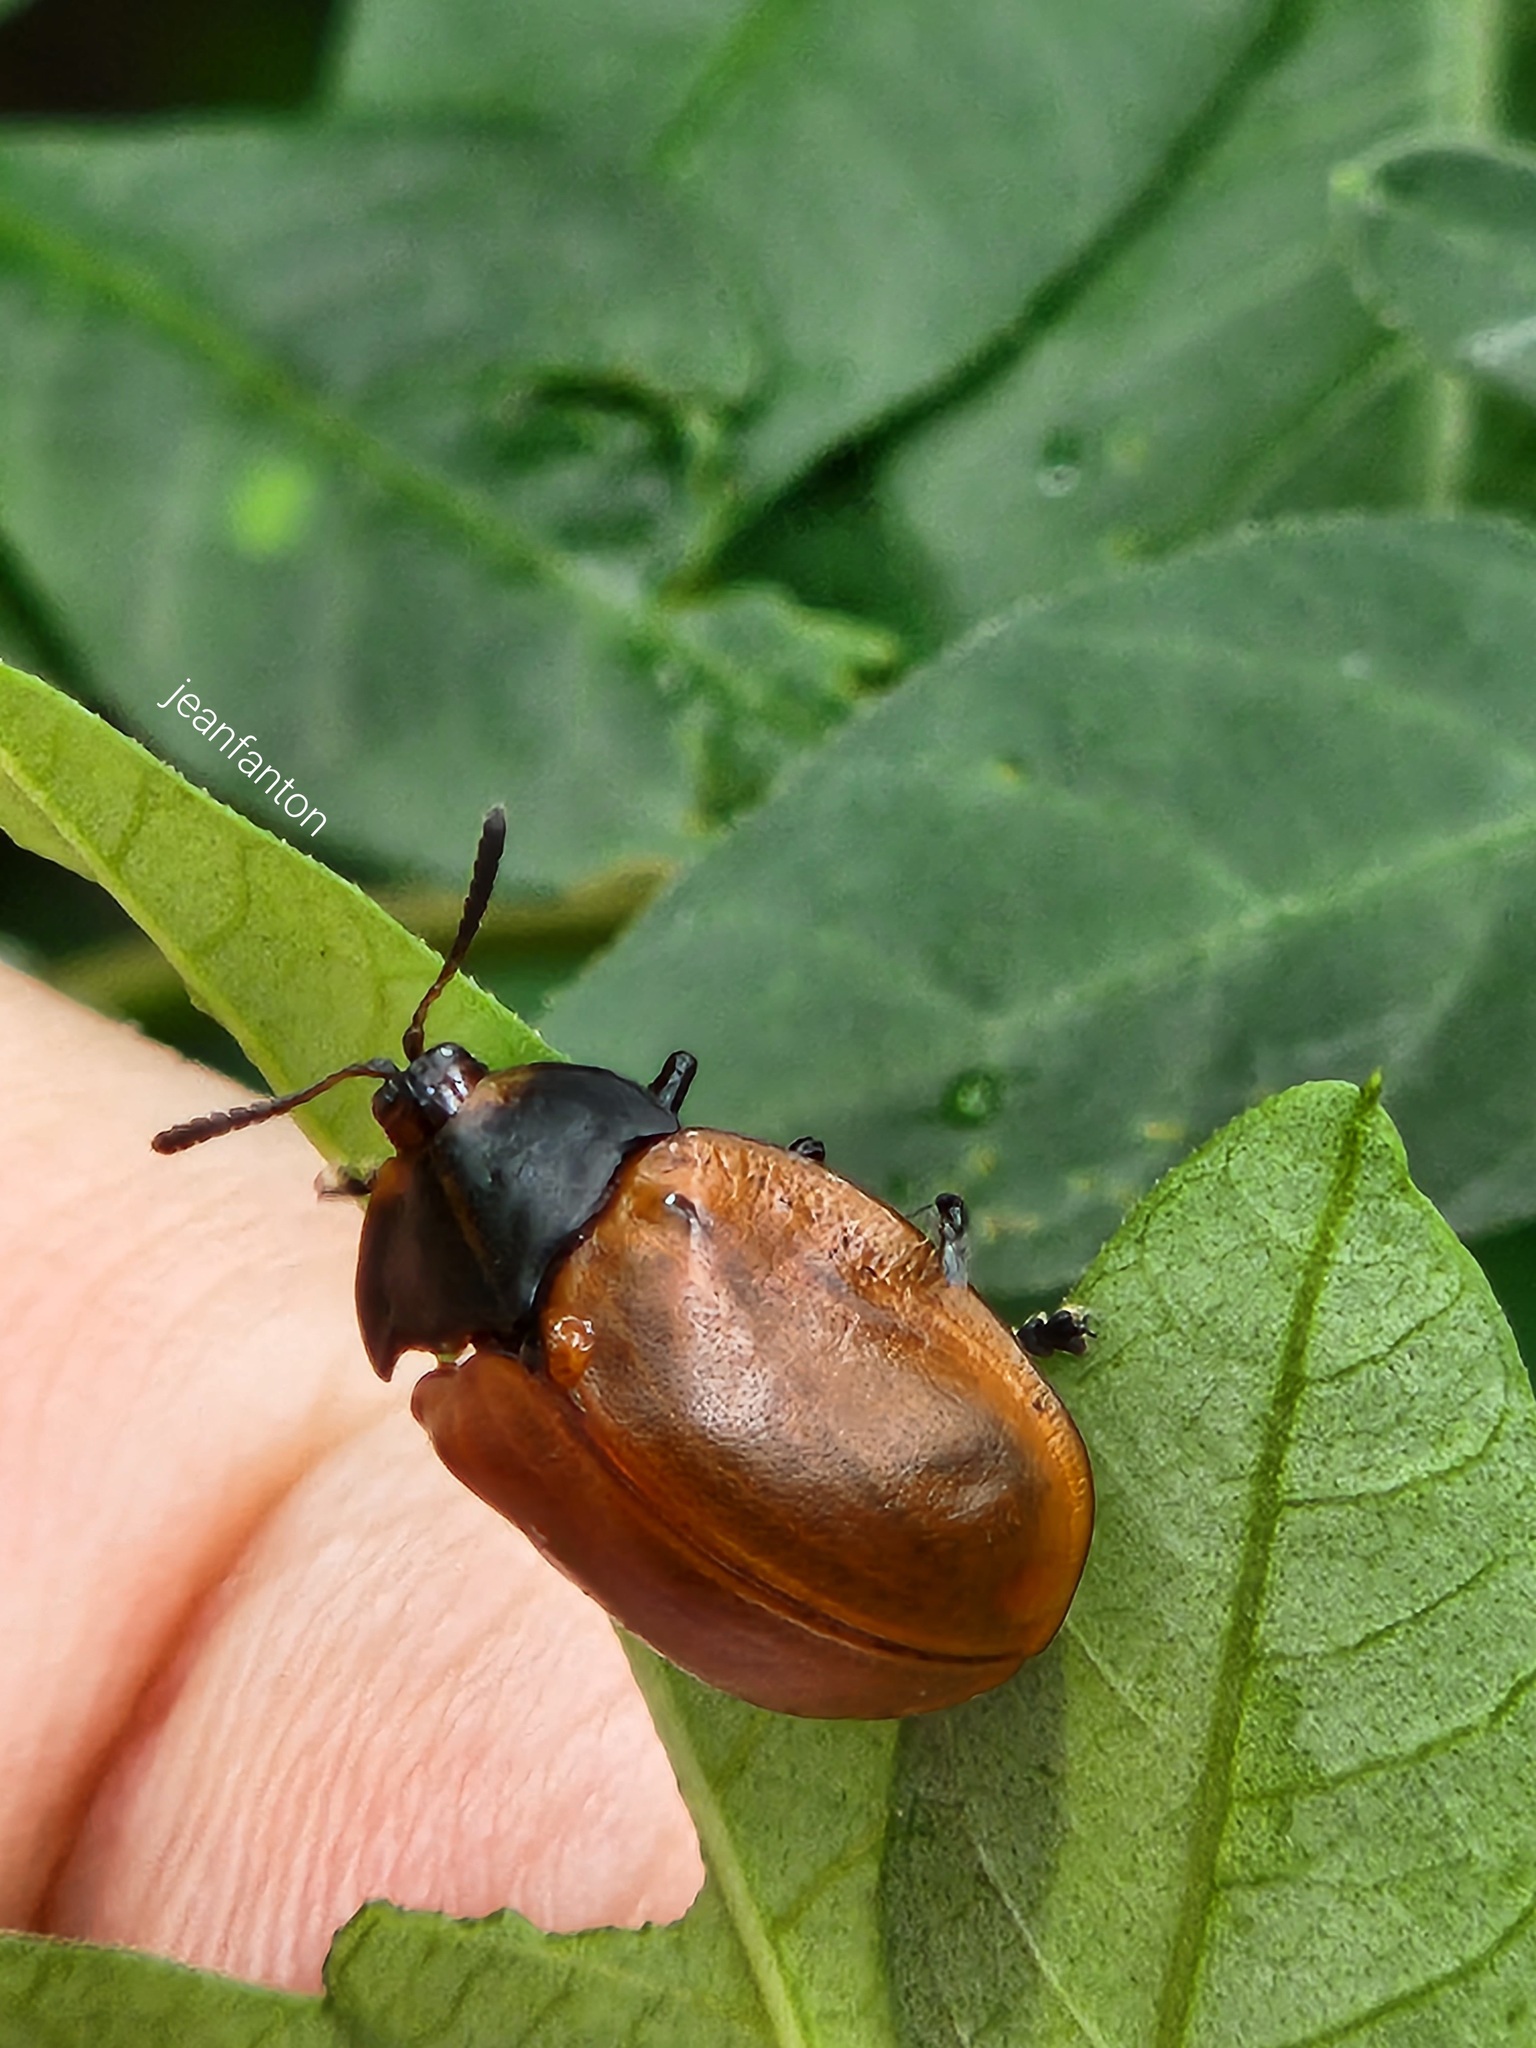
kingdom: Animalia
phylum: Arthropoda
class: Insecta
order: Coleoptera
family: Chrysomelidae
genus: Chelymorpha
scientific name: Chelymorpha cribraria
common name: Tortoise beetle
